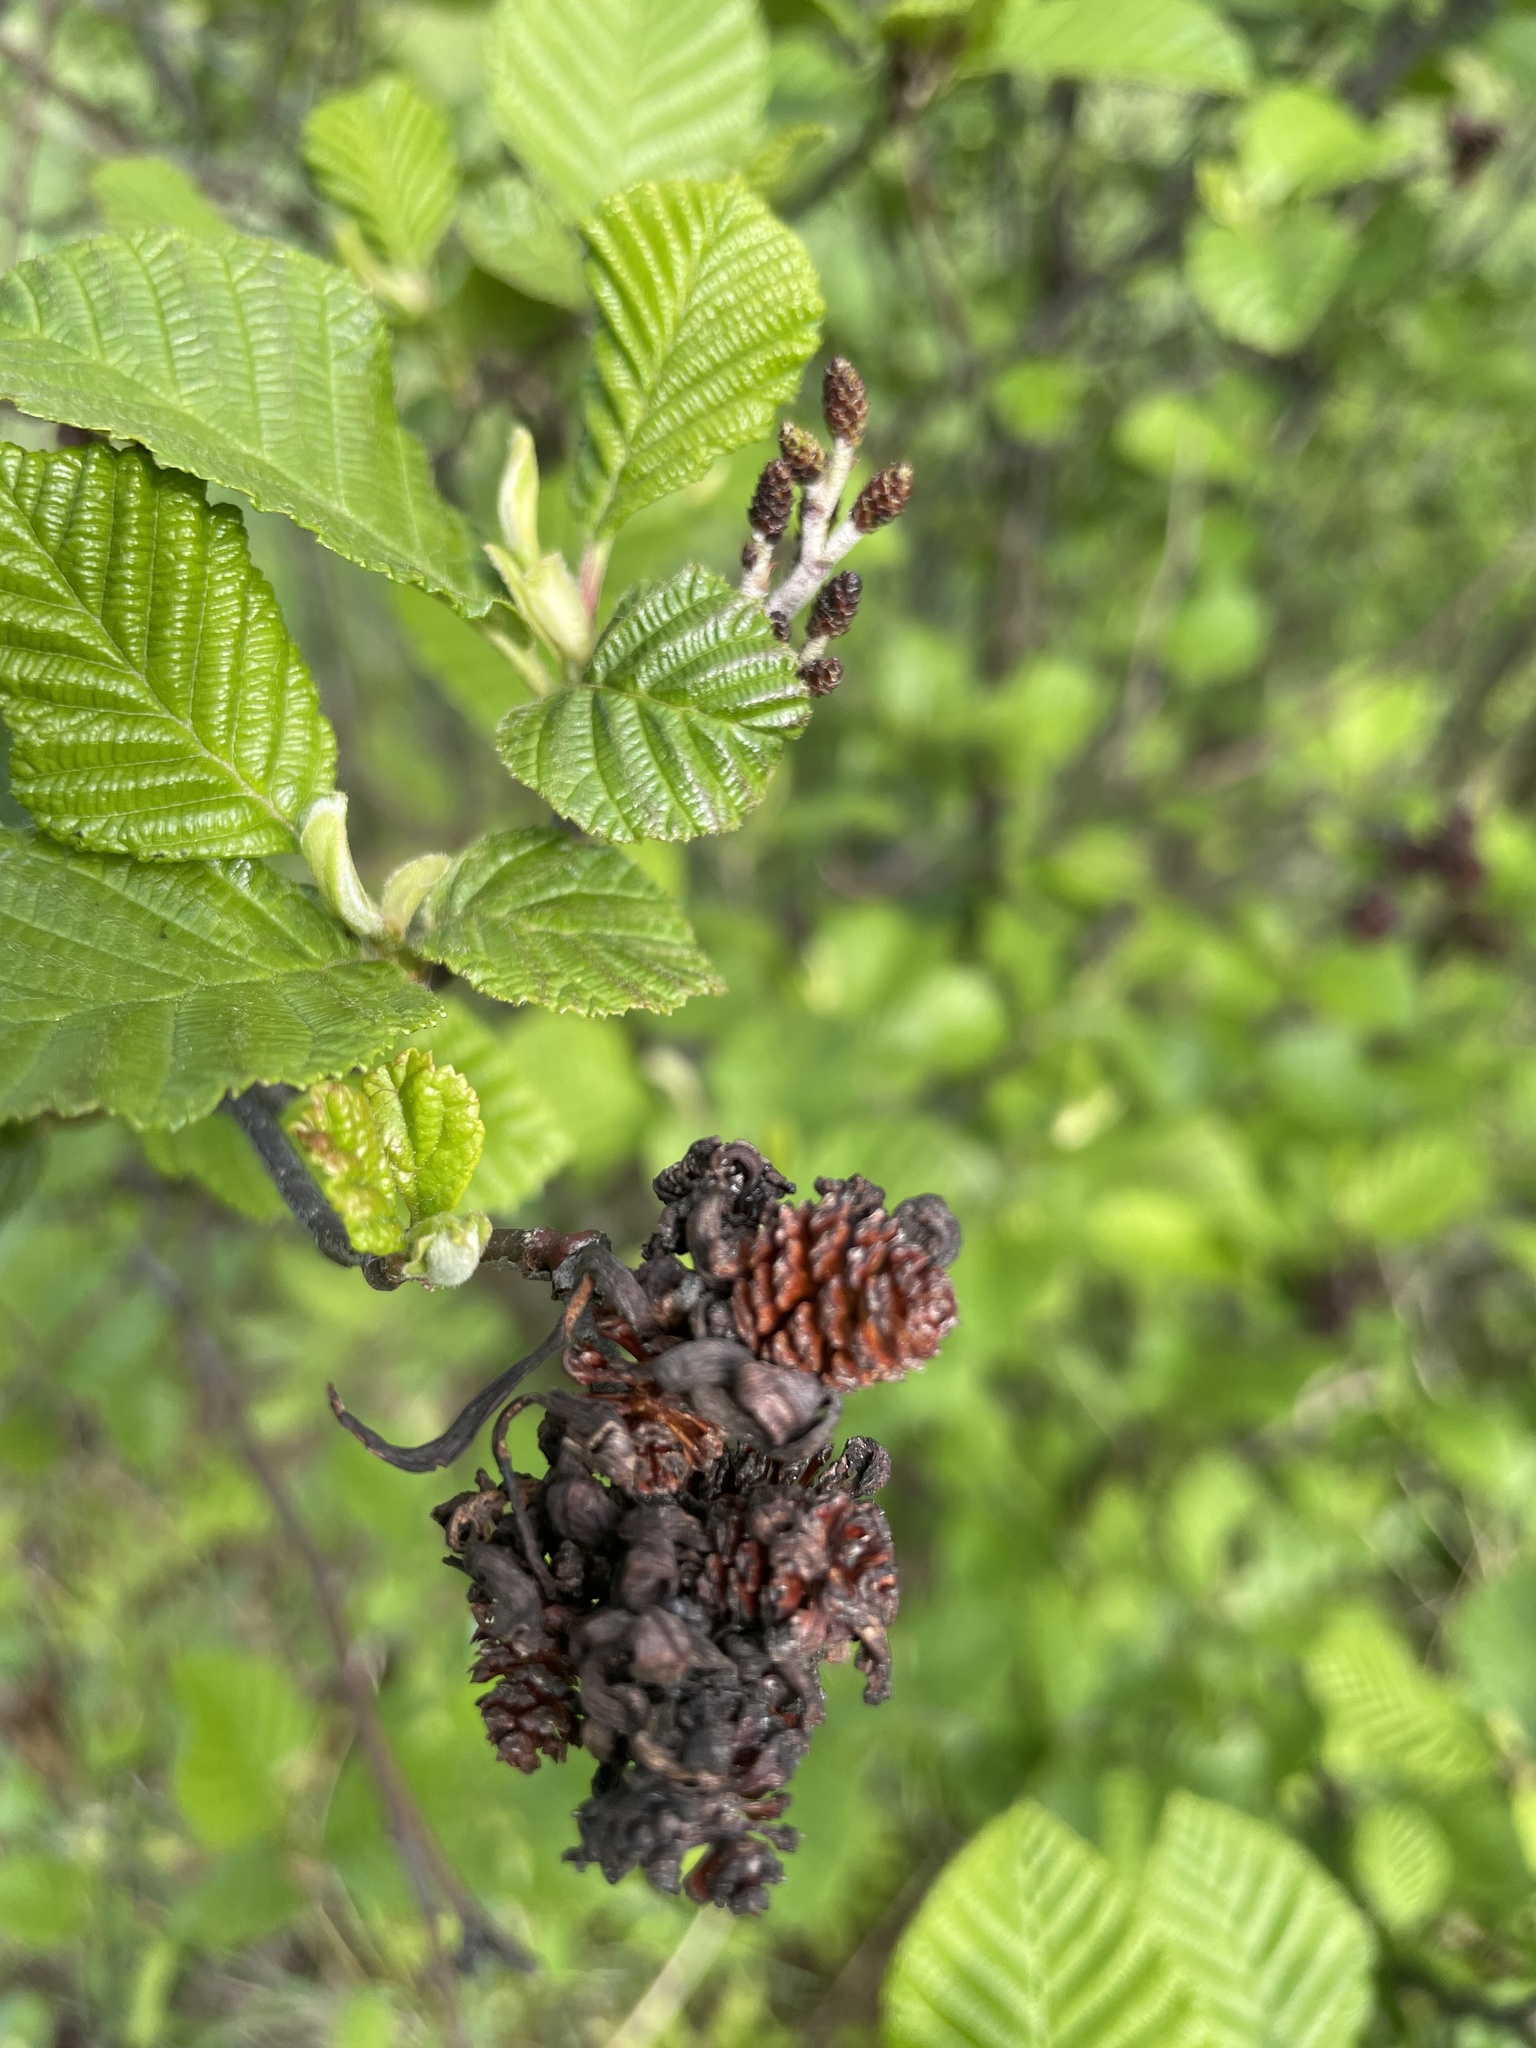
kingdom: Plantae
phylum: Tracheophyta
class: Magnoliopsida
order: Fagales
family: Betulaceae
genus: Alnus
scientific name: Alnus incana
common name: Grey alder
